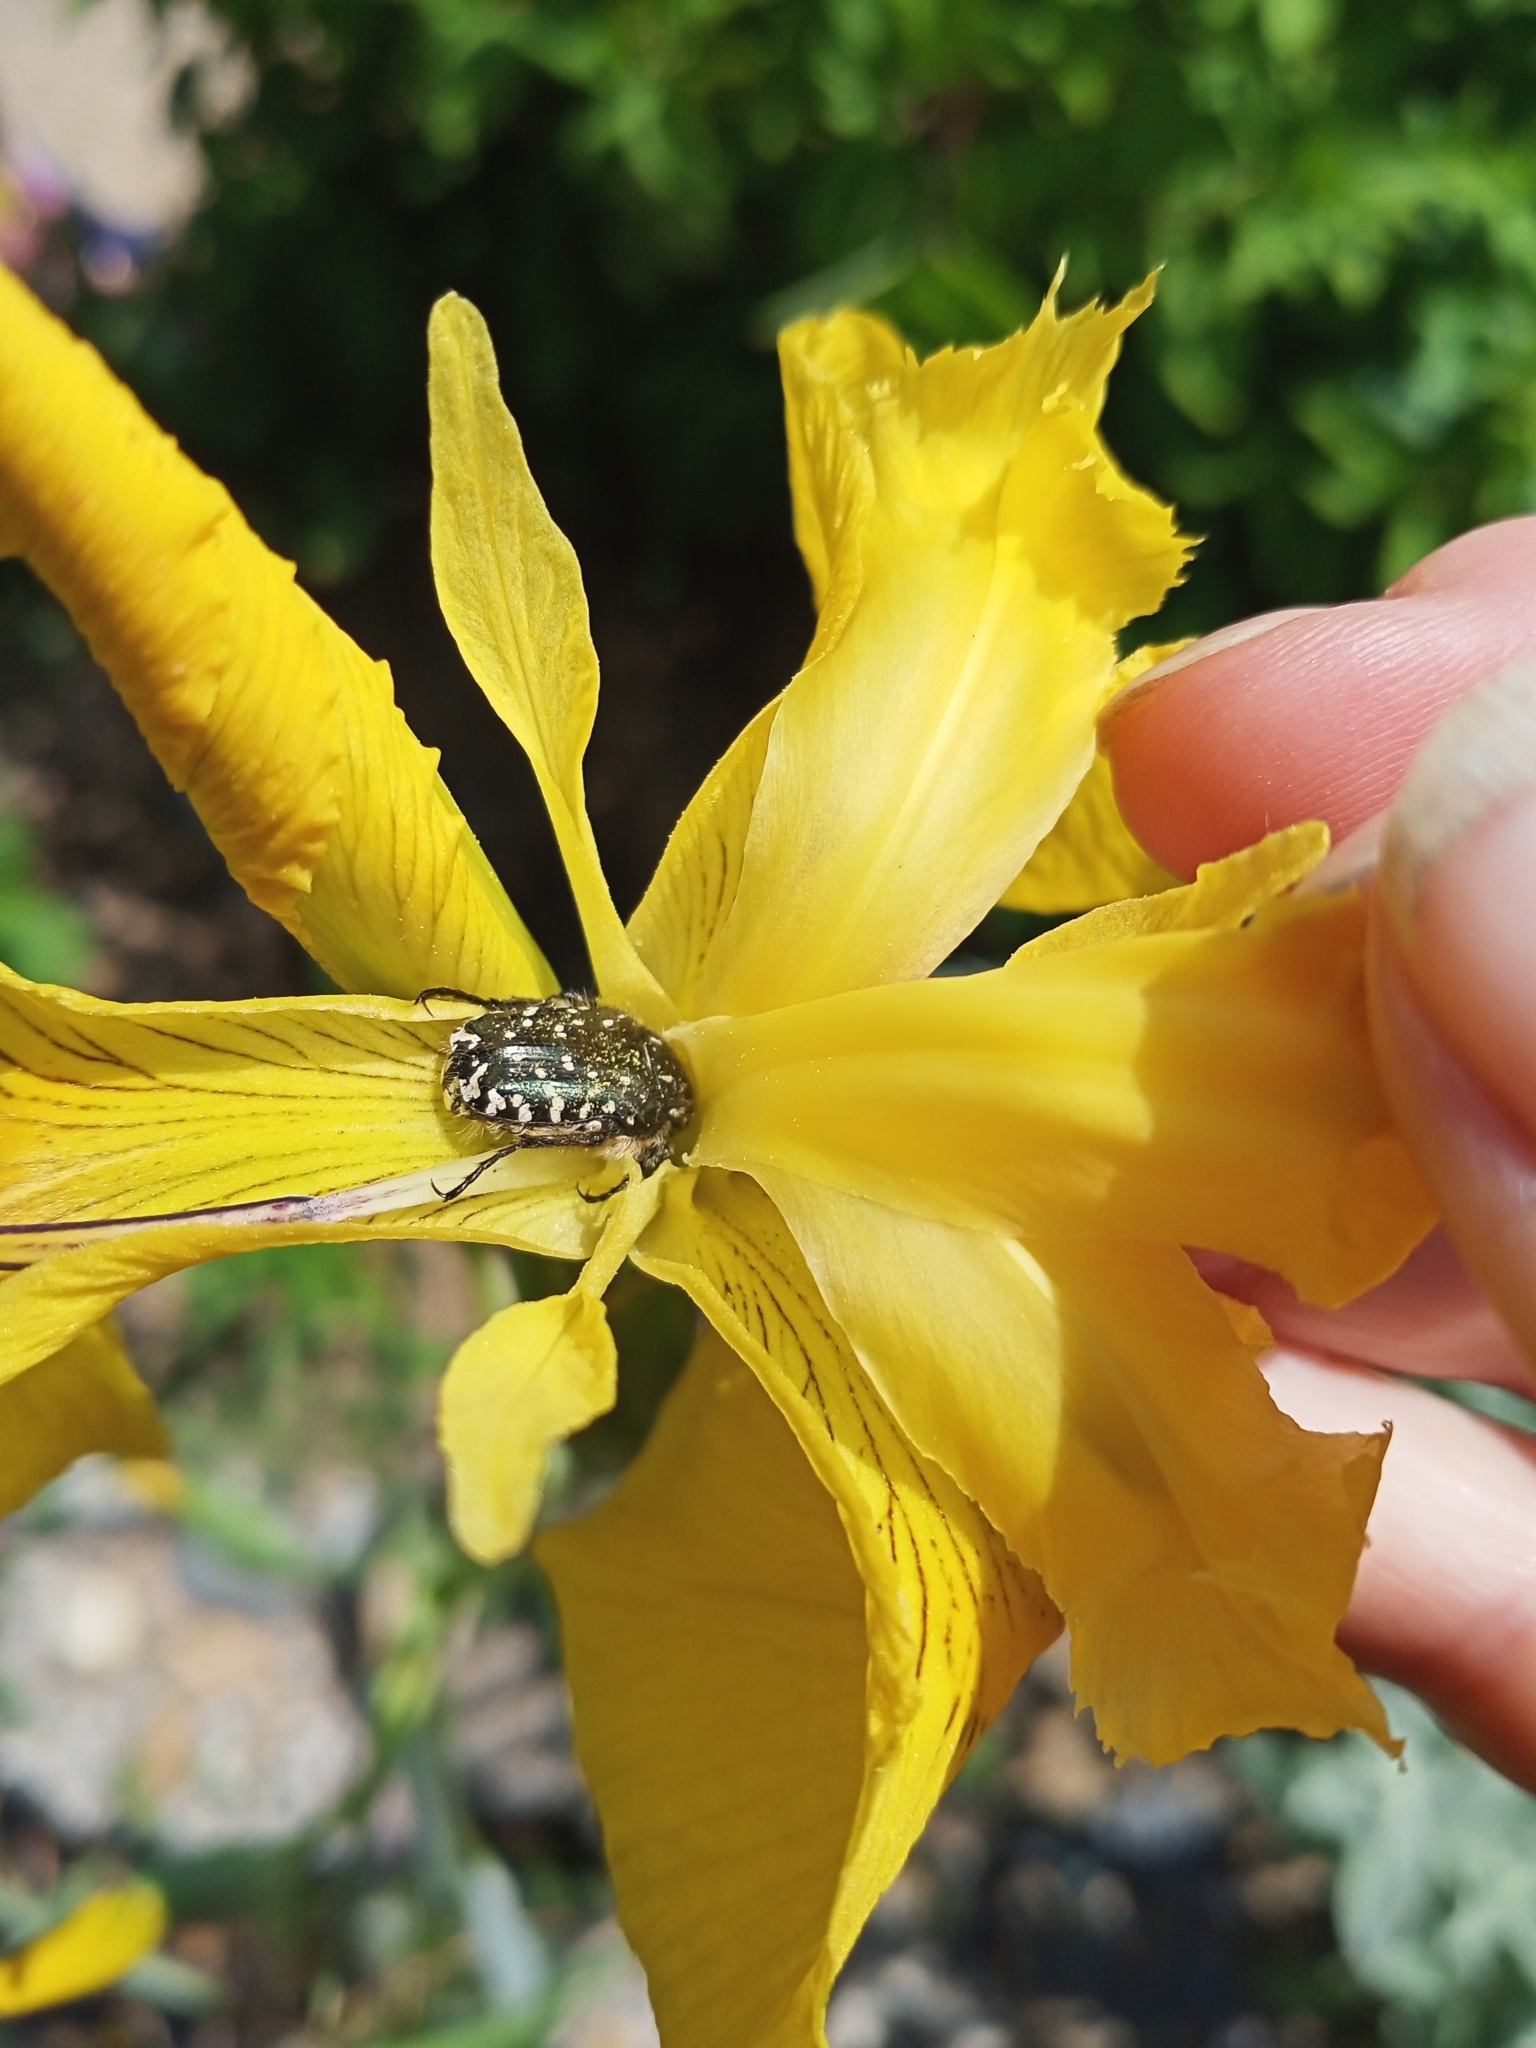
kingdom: Animalia
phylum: Arthropoda
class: Insecta
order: Coleoptera
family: Scarabaeidae
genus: Oxythyrea
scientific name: Oxythyrea funesta
